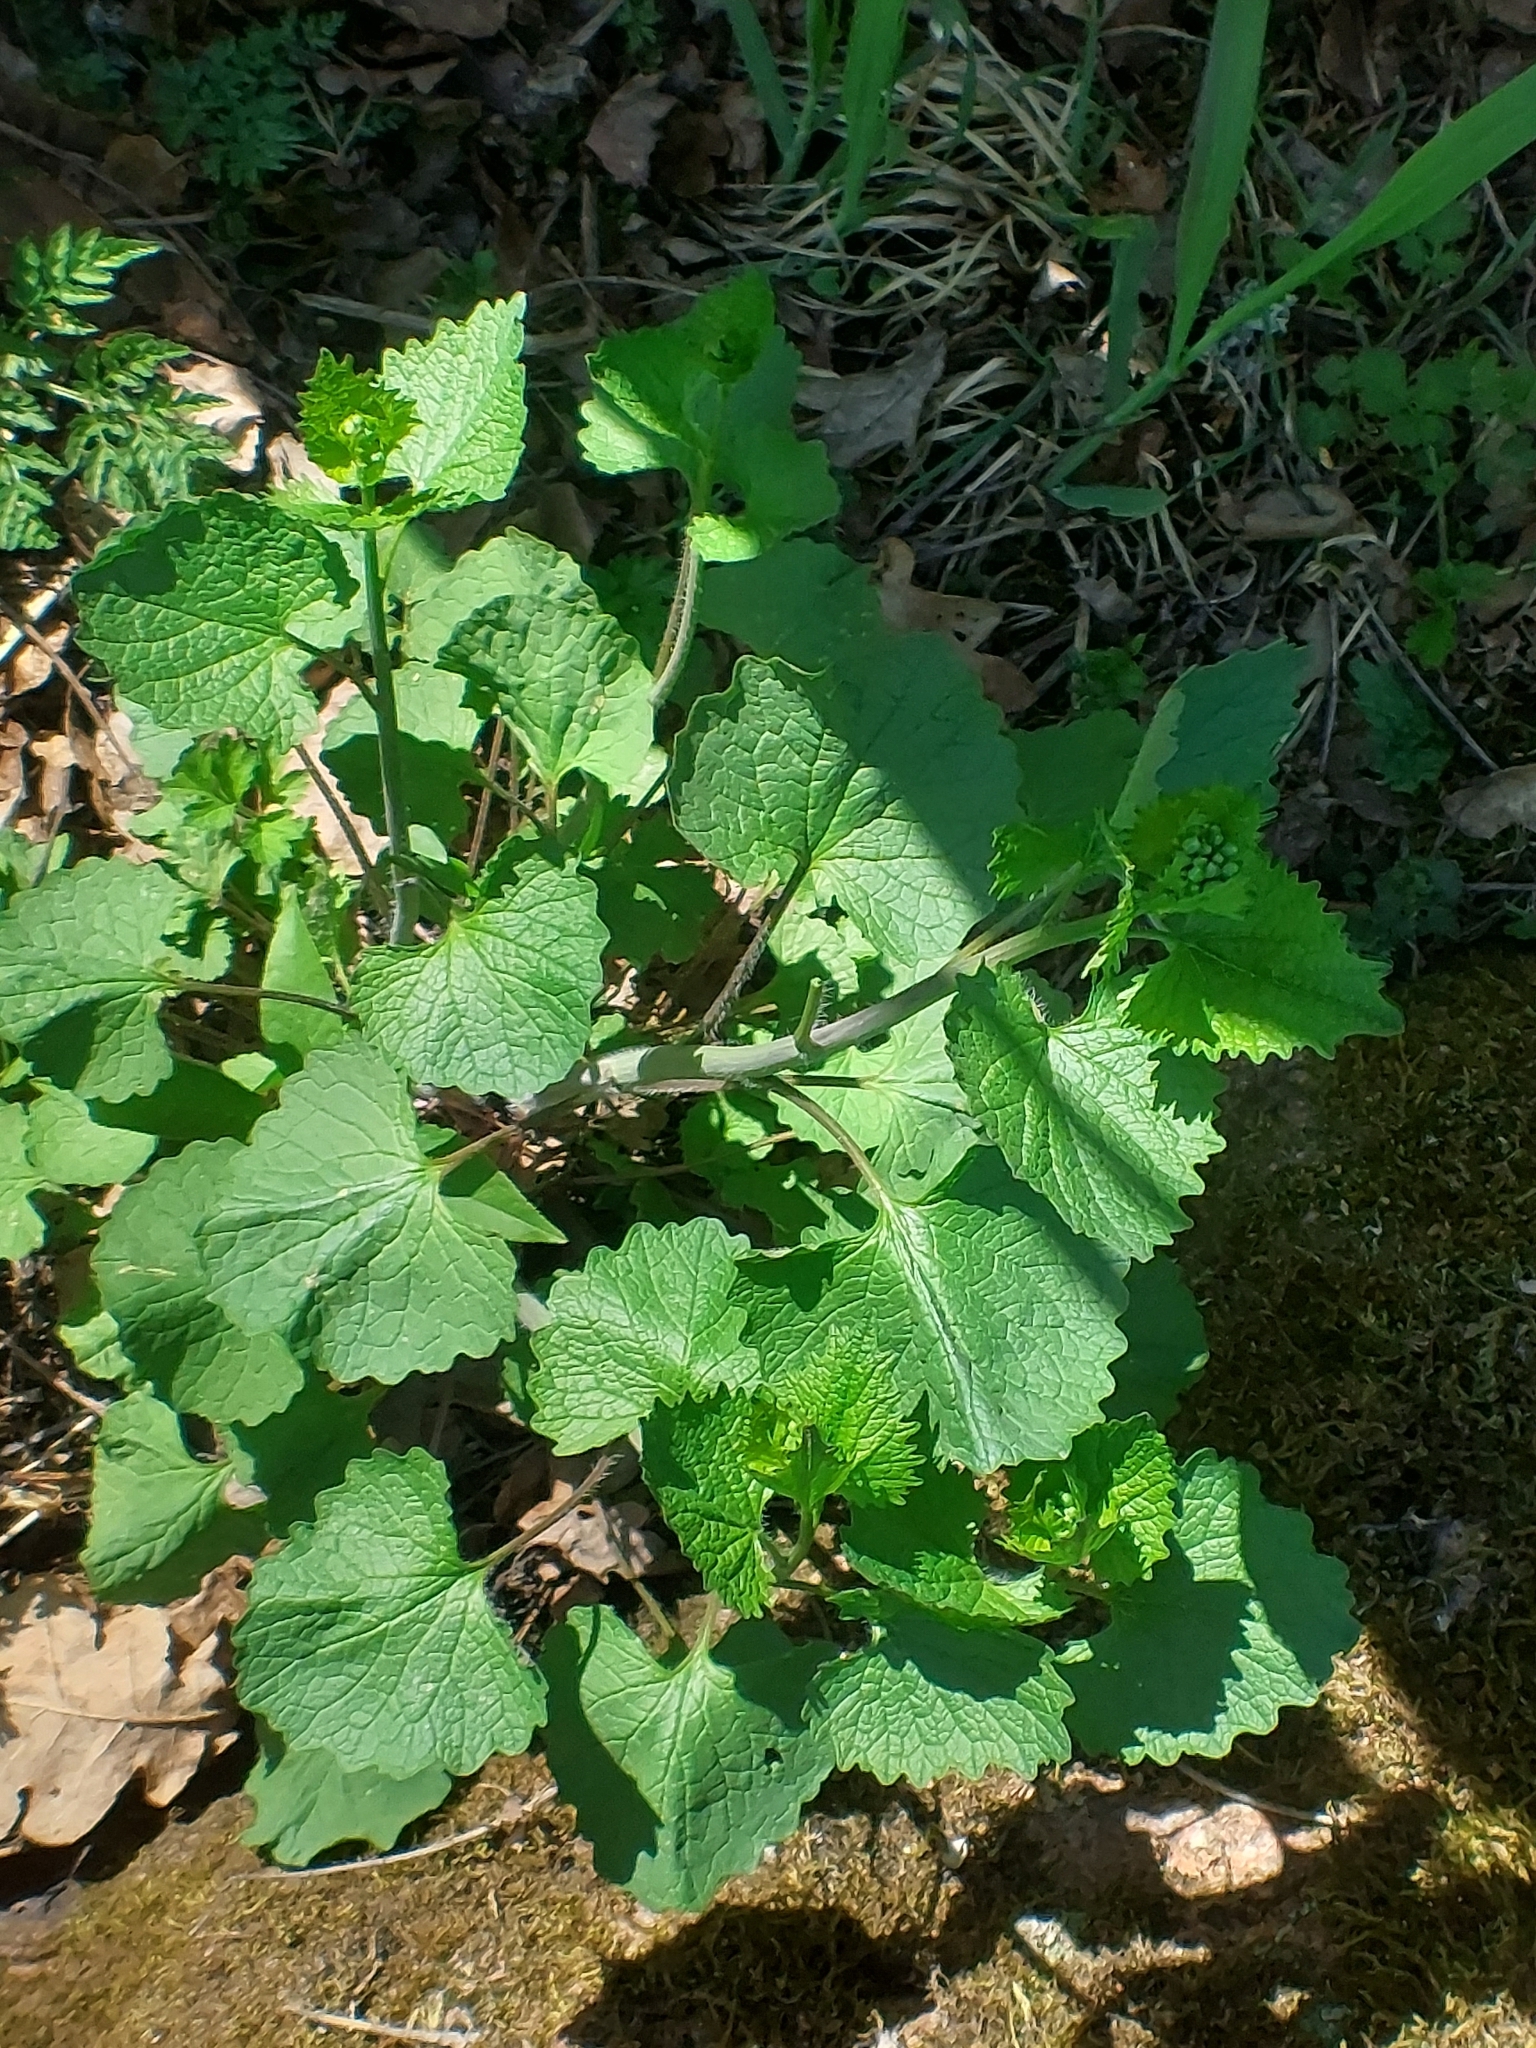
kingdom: Plantae
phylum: Tracheophyta
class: Magnoliopsida
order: Brassicales
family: Brassicaceae
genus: Alliaria
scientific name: Alliaria petiolata
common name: Garlic mustard
